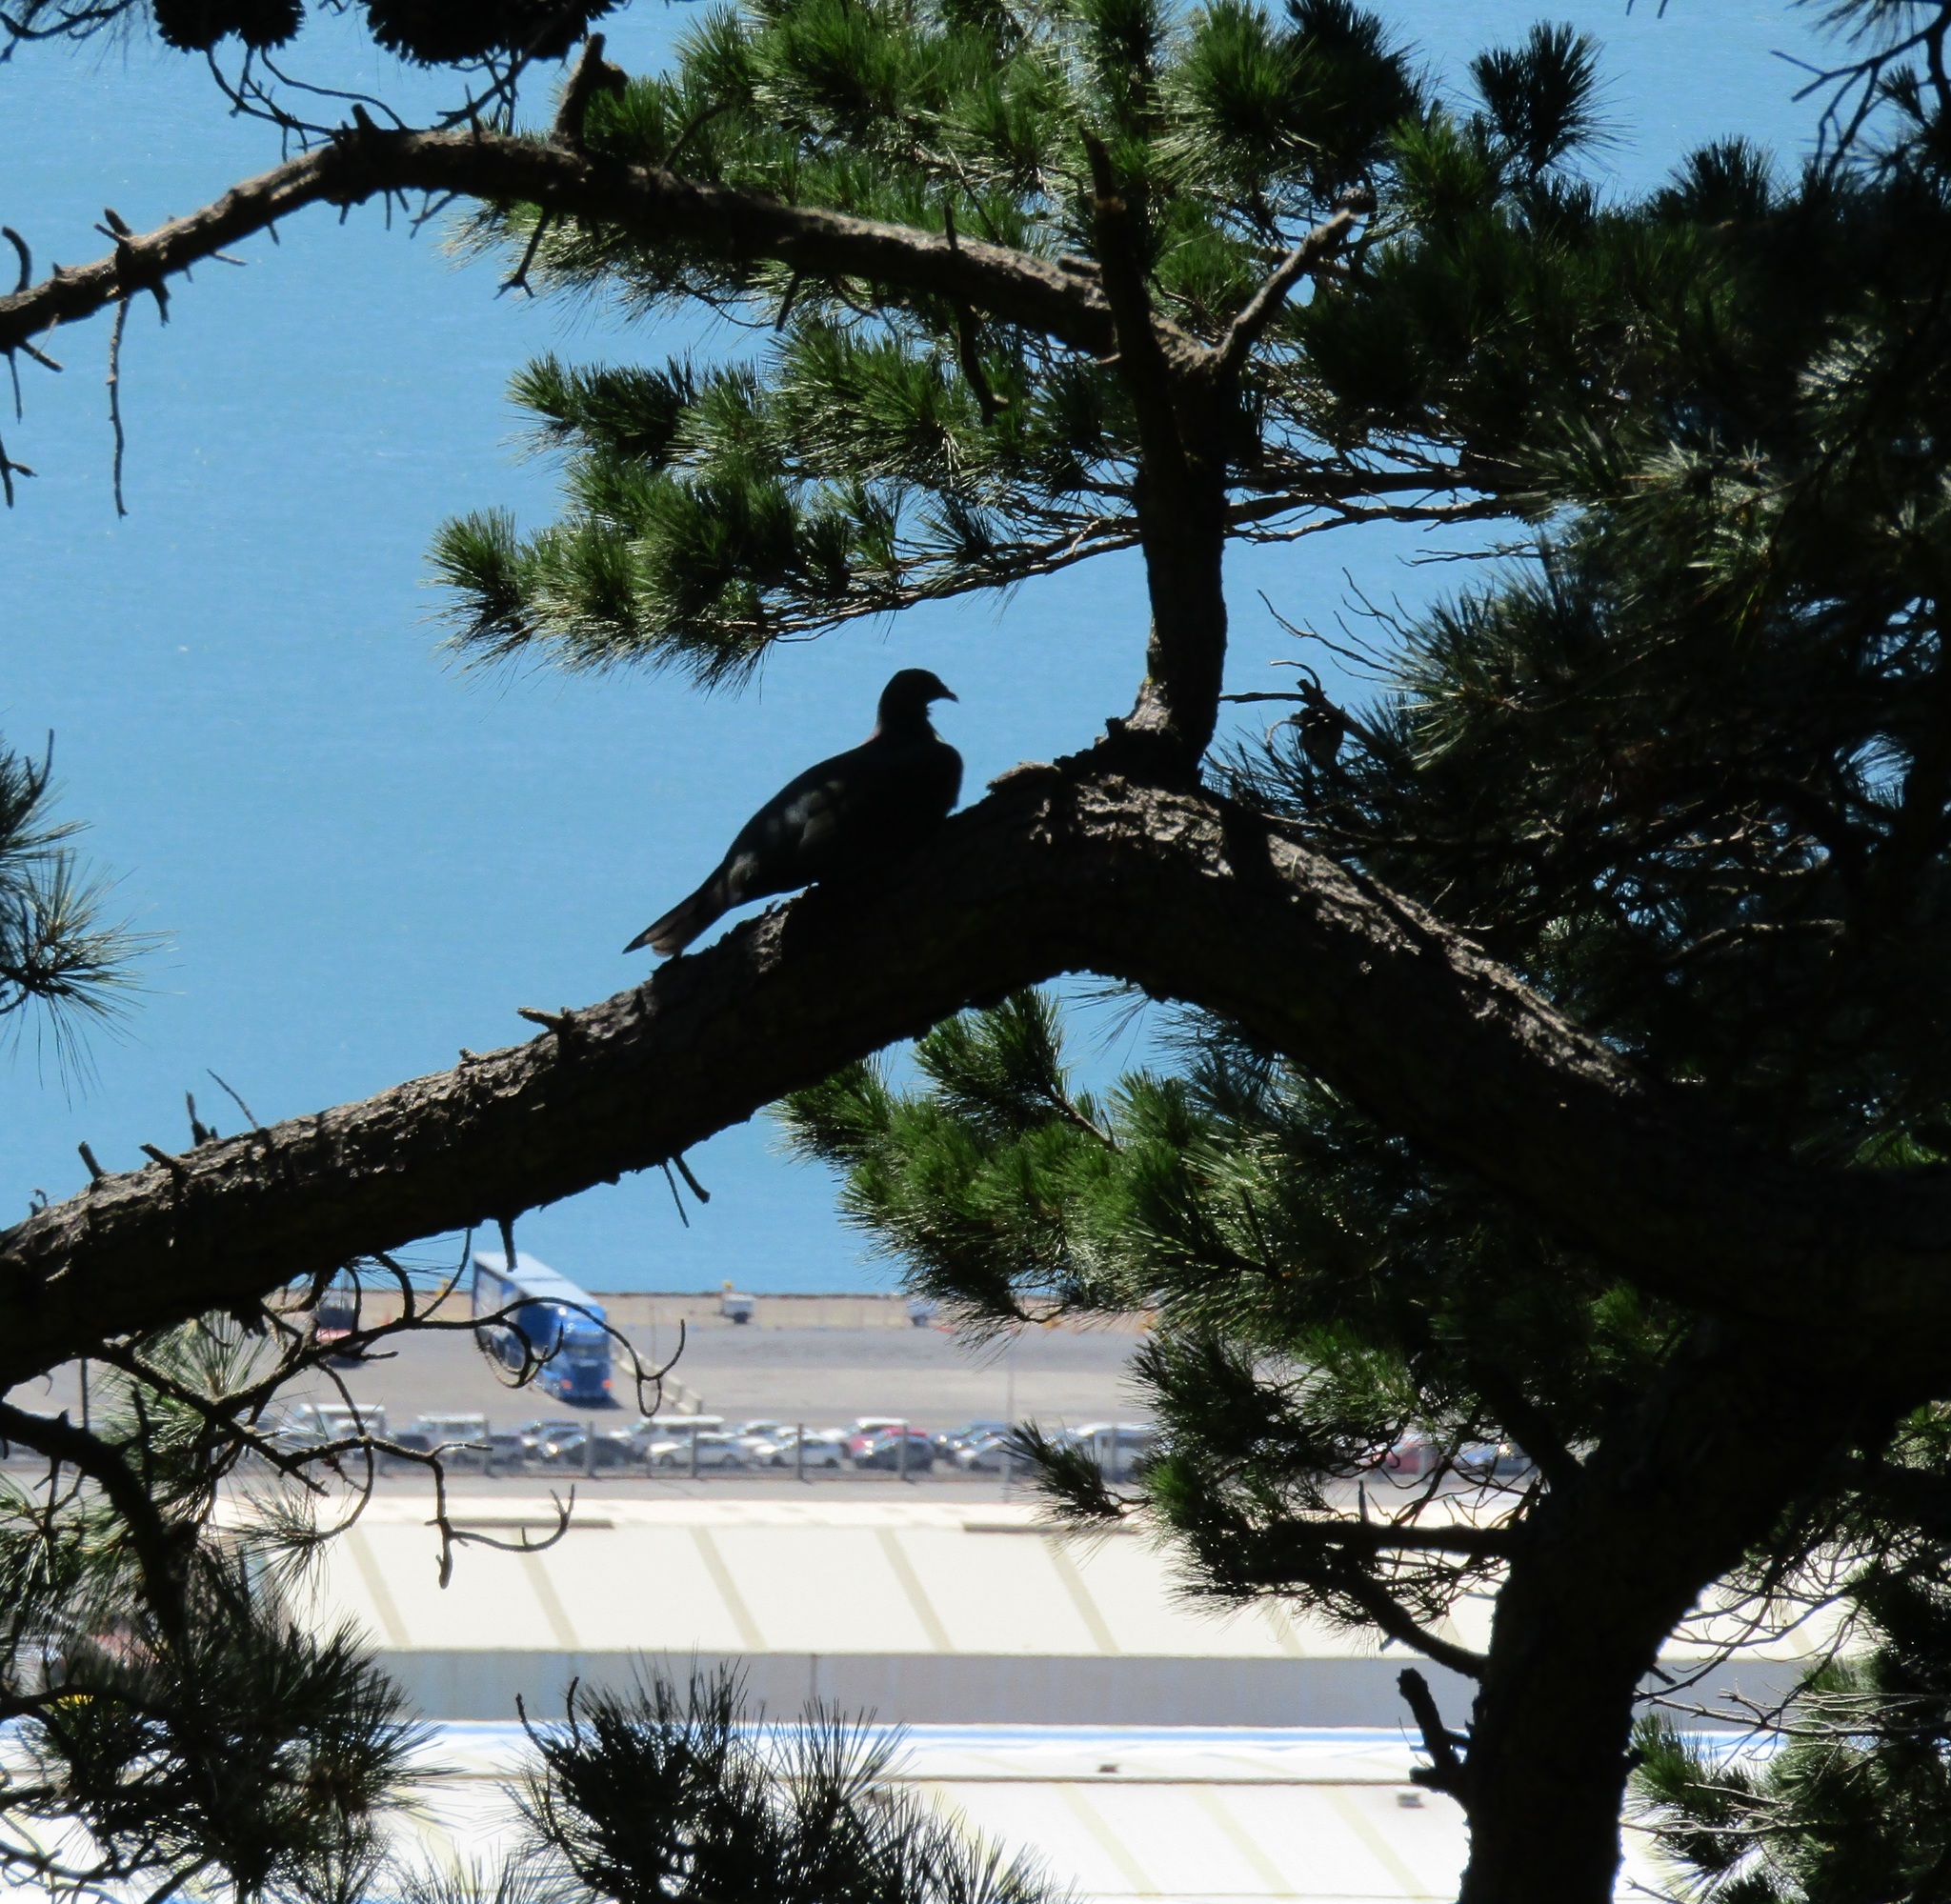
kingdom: Animalia
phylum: Chordata
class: Aves
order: Columbiformes
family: Columbidae
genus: Hemiphaga
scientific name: Hemiphaga novaeseelandiae
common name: New zealand pigeon
